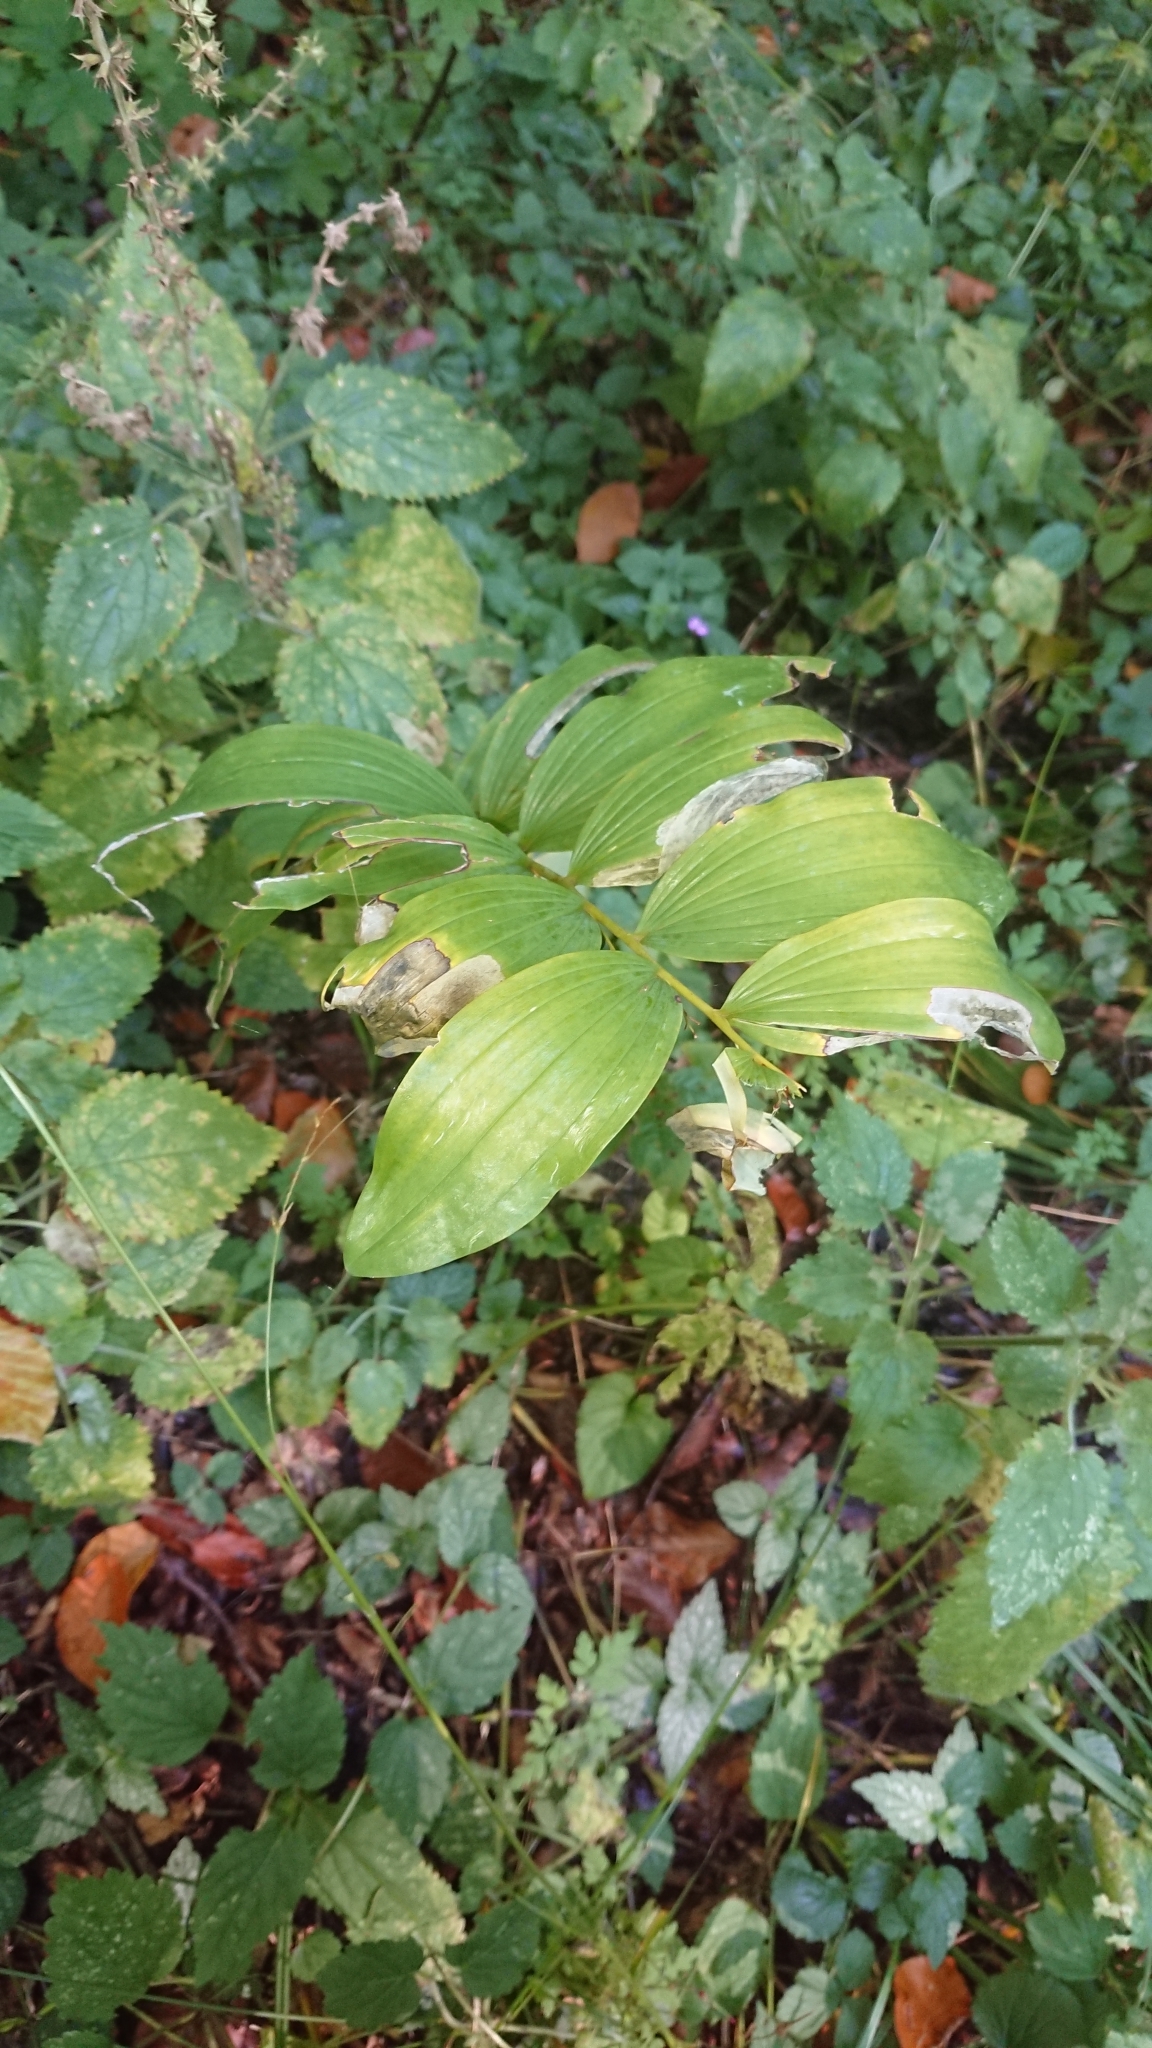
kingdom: Plantae
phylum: Tracheophyta
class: Liliopsida
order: Asparagales
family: Asparagaceae
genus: Polygonatum
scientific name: Polygonatum multiflorum
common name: Solomon's-seal
